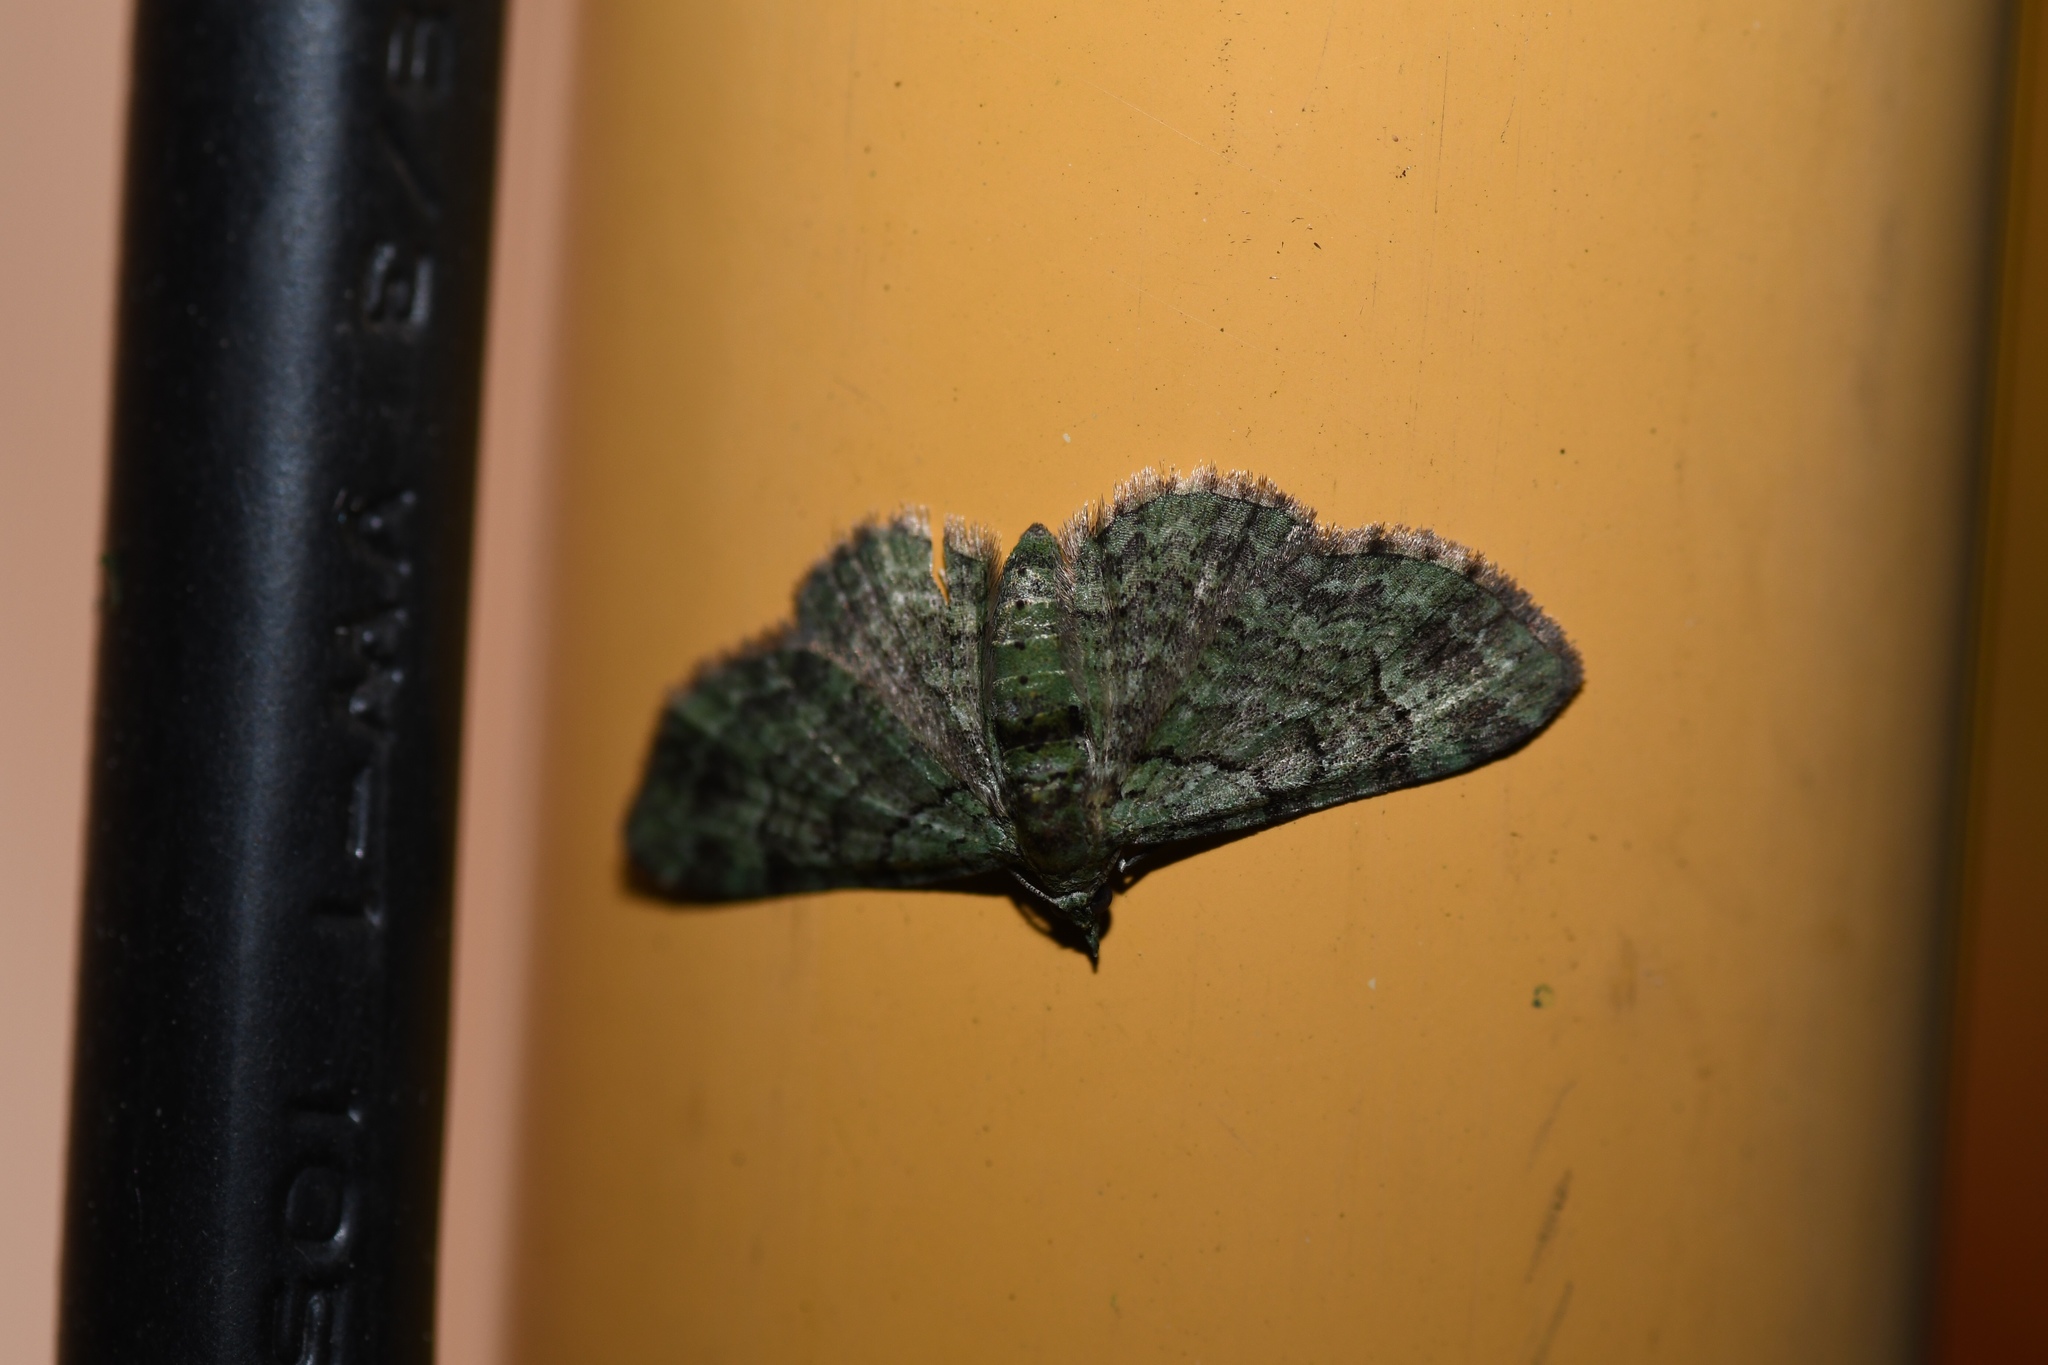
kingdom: Animalia
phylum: Arthropoda
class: Insecta
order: Lepidoptera
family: Geometridae
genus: Pasiphila
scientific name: Pasiphila rectangulata
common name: Green pug
